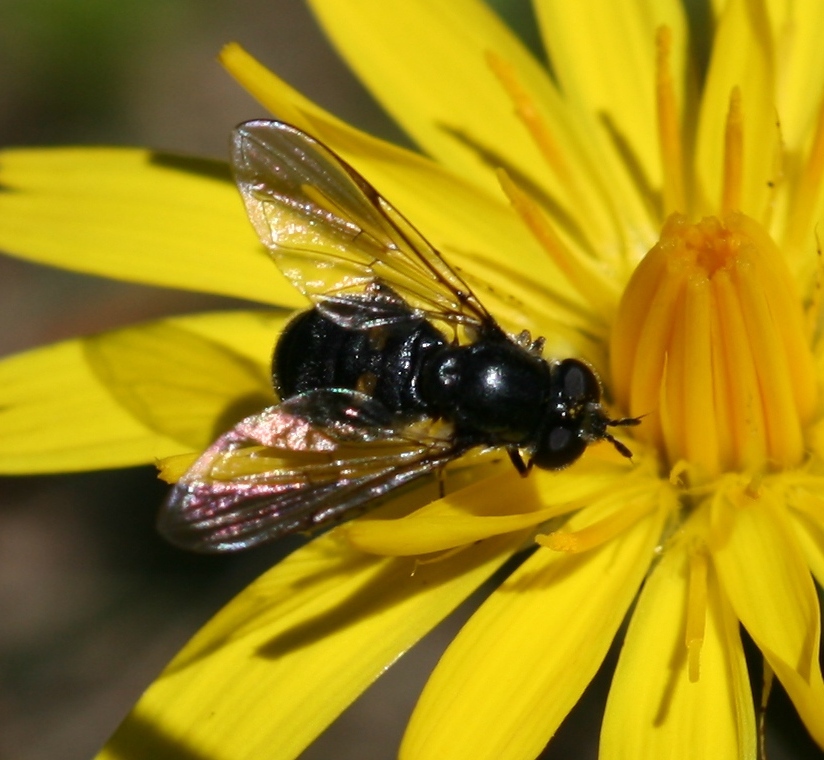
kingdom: Animalia
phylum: Arthropoda
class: Insecta
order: Diptera
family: Syrphidae
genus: Pipiza
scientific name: Pipiza
